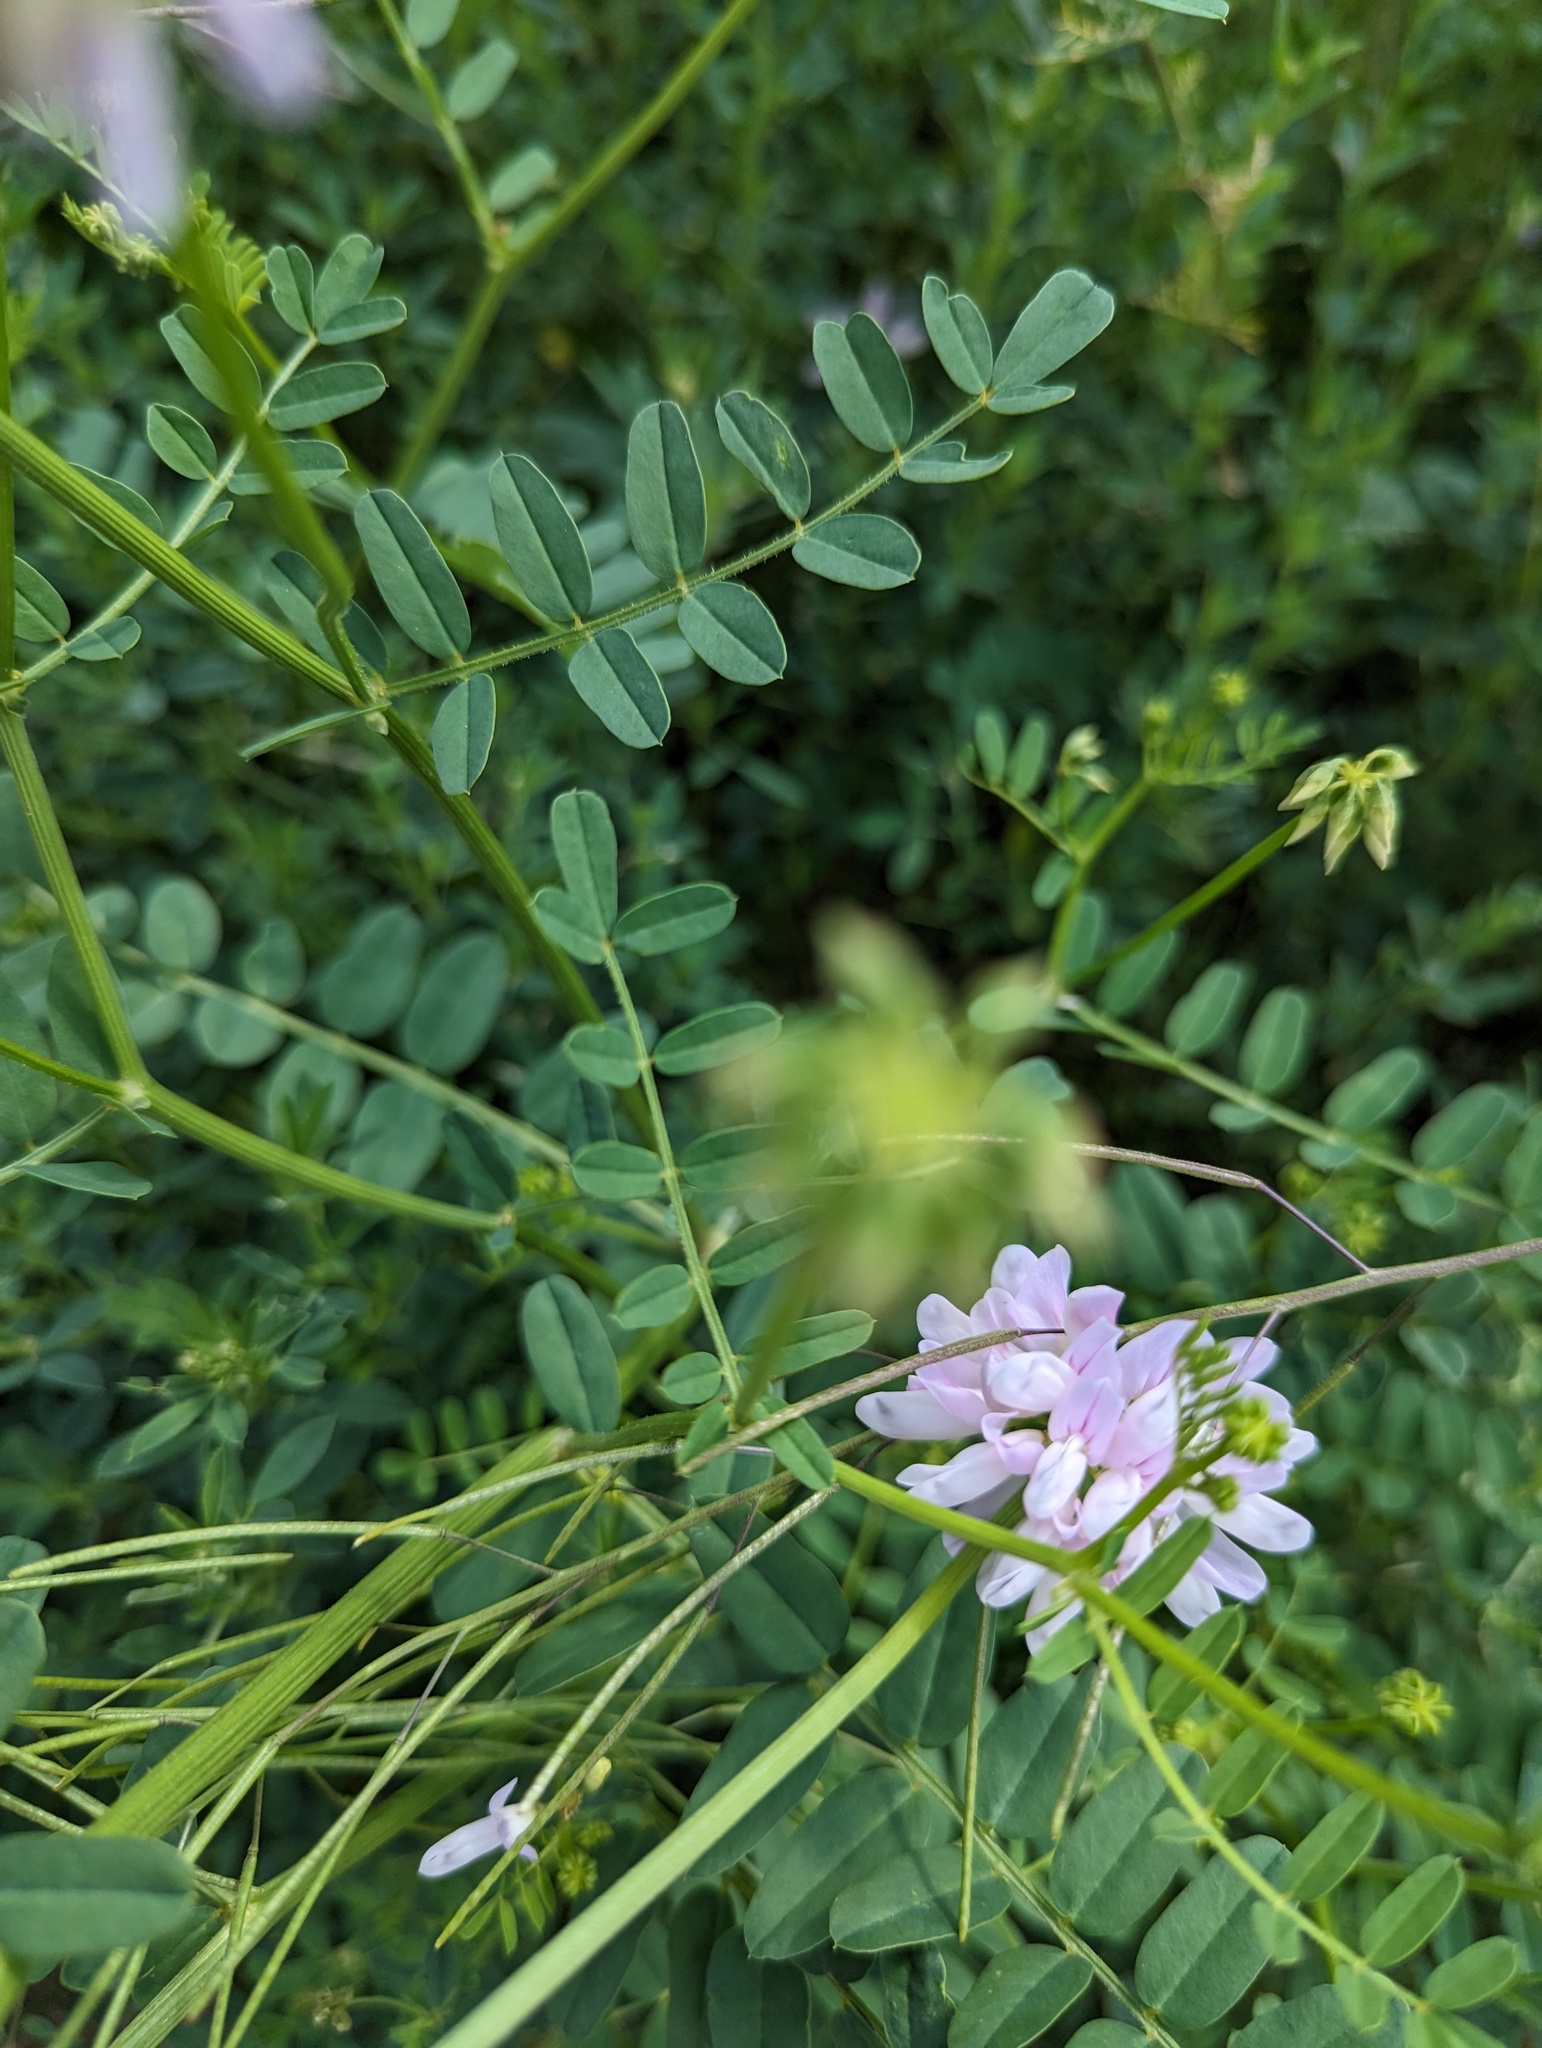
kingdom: Plantae
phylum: Tracheophyta
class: Magnoliopsida
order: Fabales
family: Fabaceae
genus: Coronilla
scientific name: Coronilla varia
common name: Crownvetch
